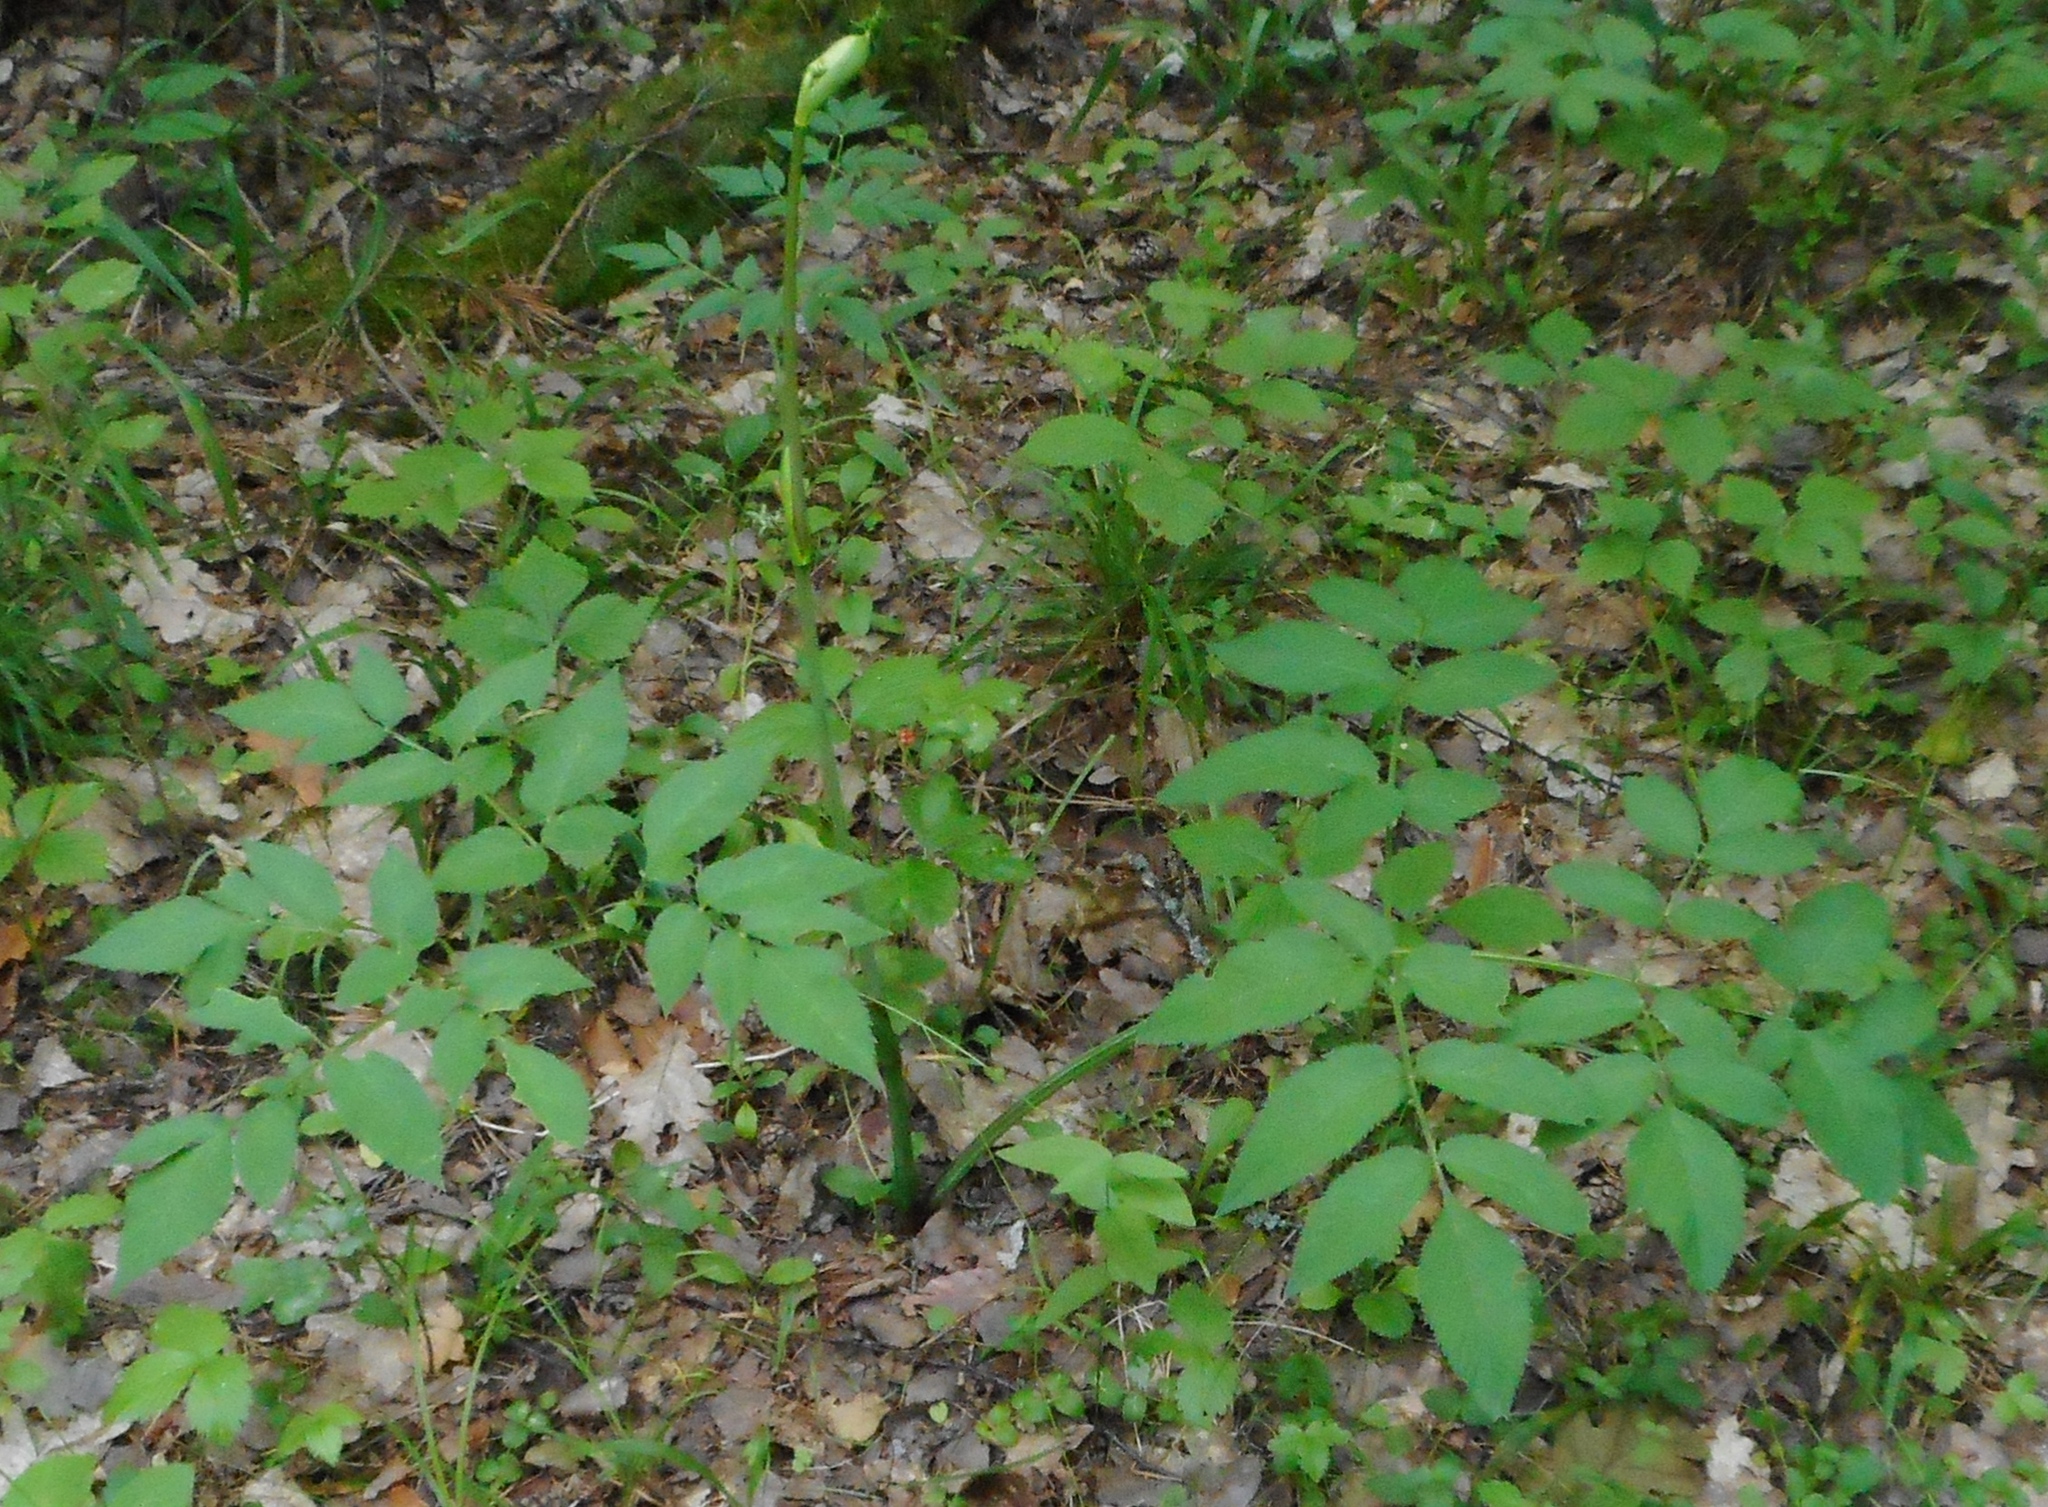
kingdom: Plantae
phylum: Tracheophyta
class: Magnoliopsida
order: Apiales
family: Apiaceae
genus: Angelica
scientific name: Angelica sylvestris
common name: Wild angelica
